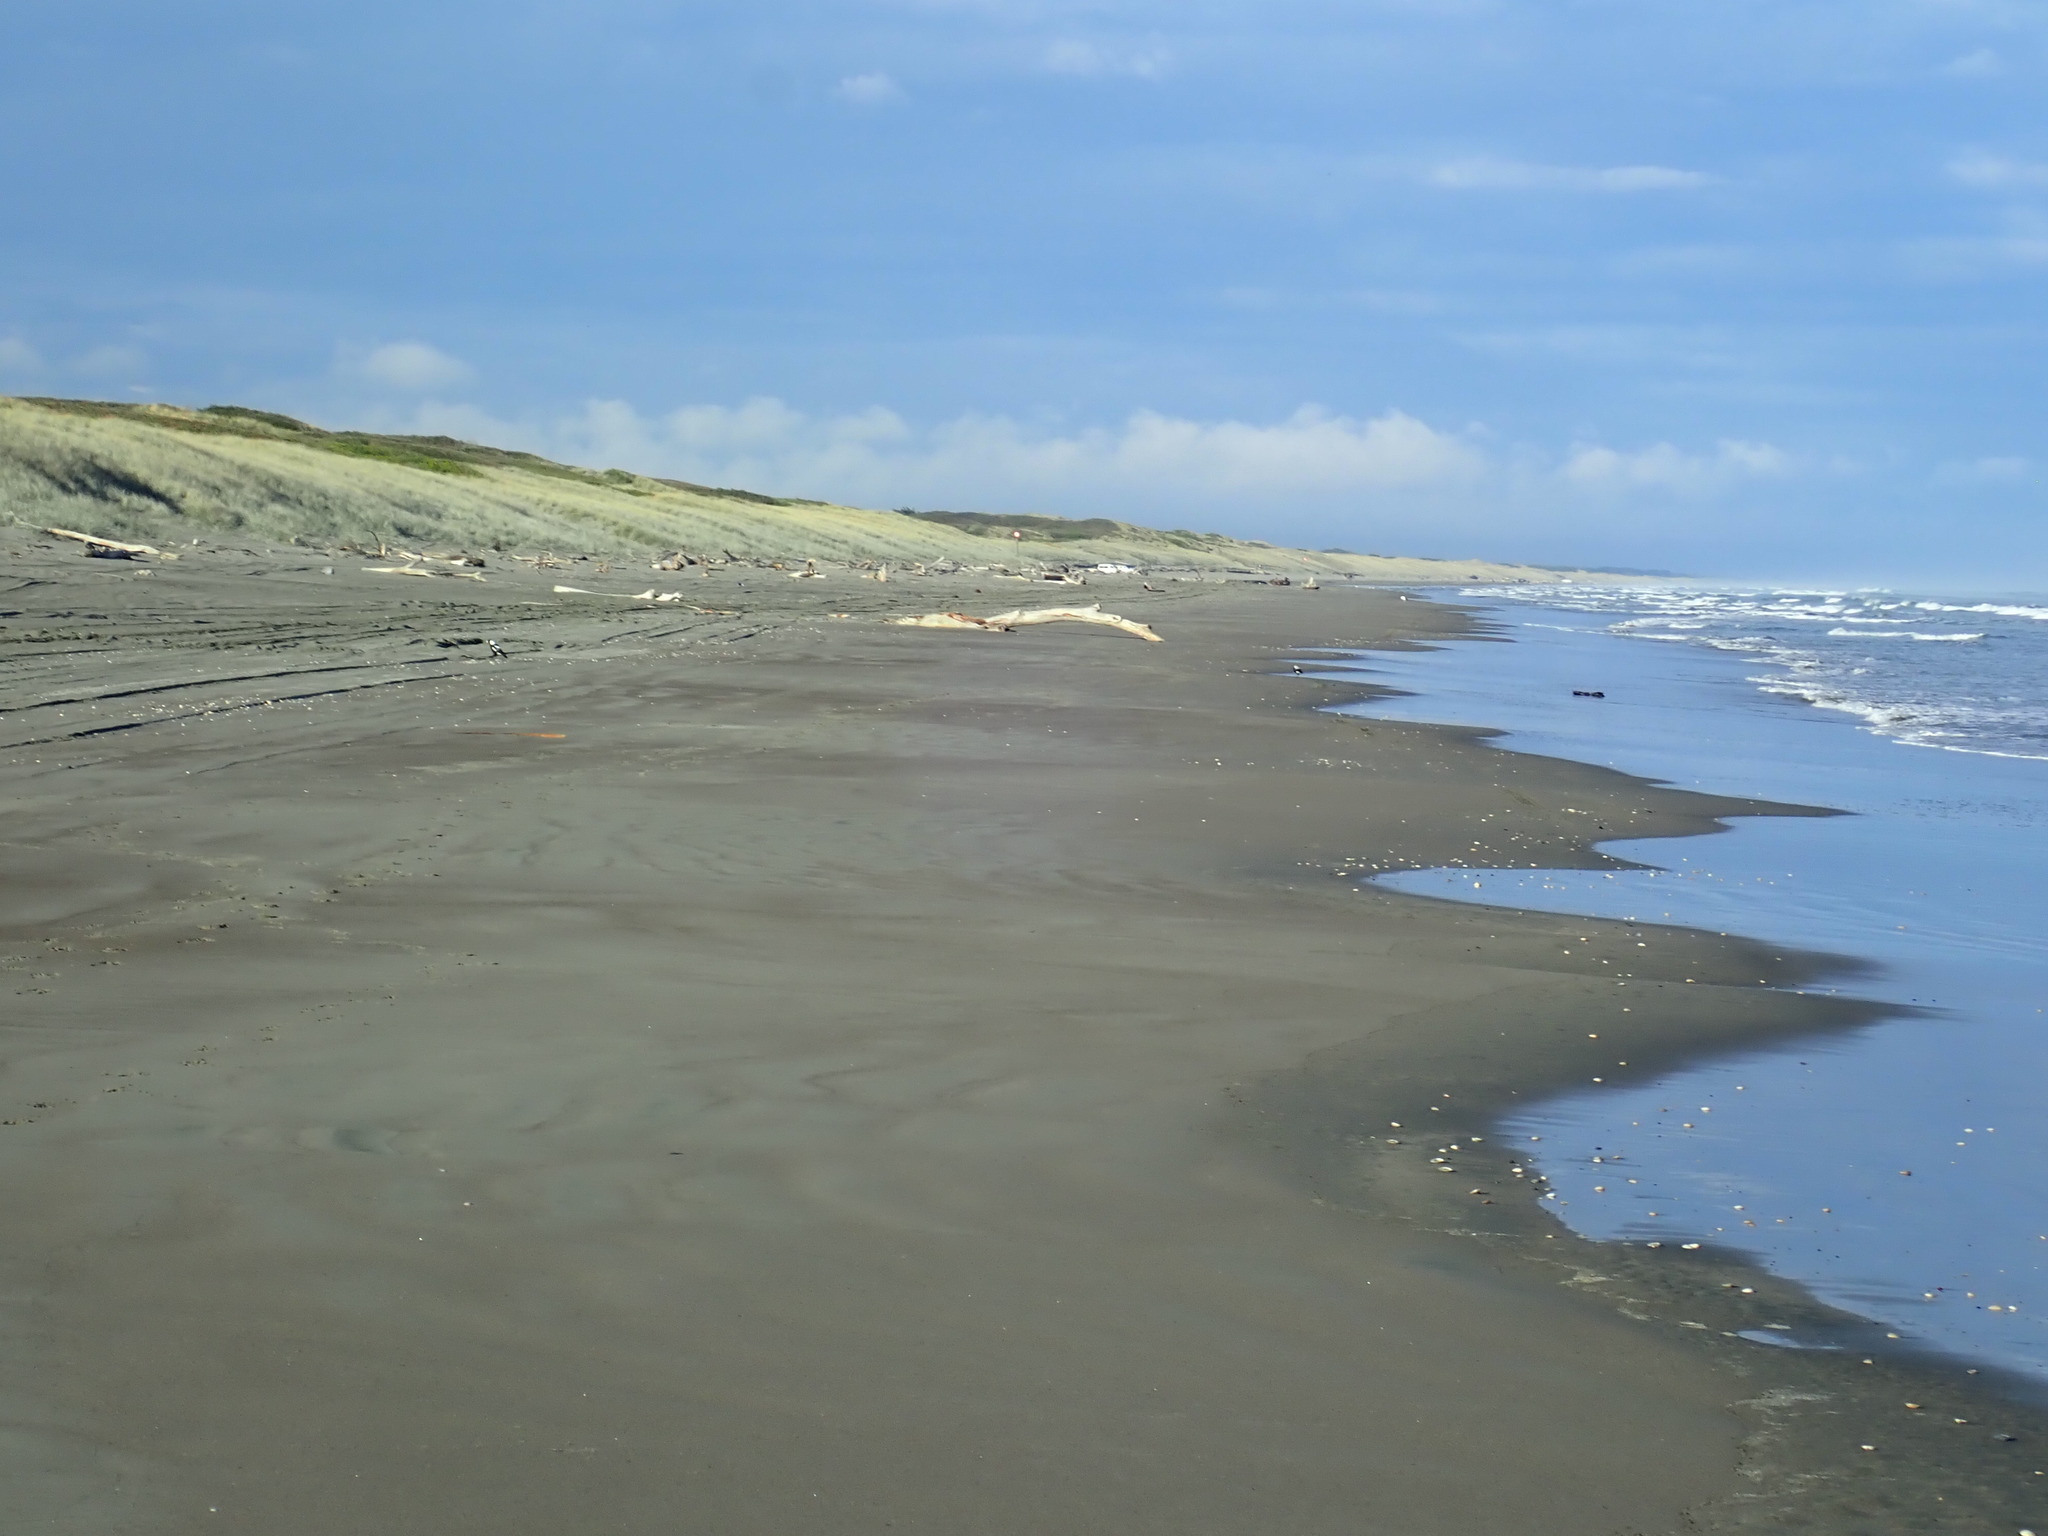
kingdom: Animalia
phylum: Chordata
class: Aves
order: Passeriformes
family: Cracticidae
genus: Gymnorhina
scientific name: Gymnorhina tibicen
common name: Australian magpie
